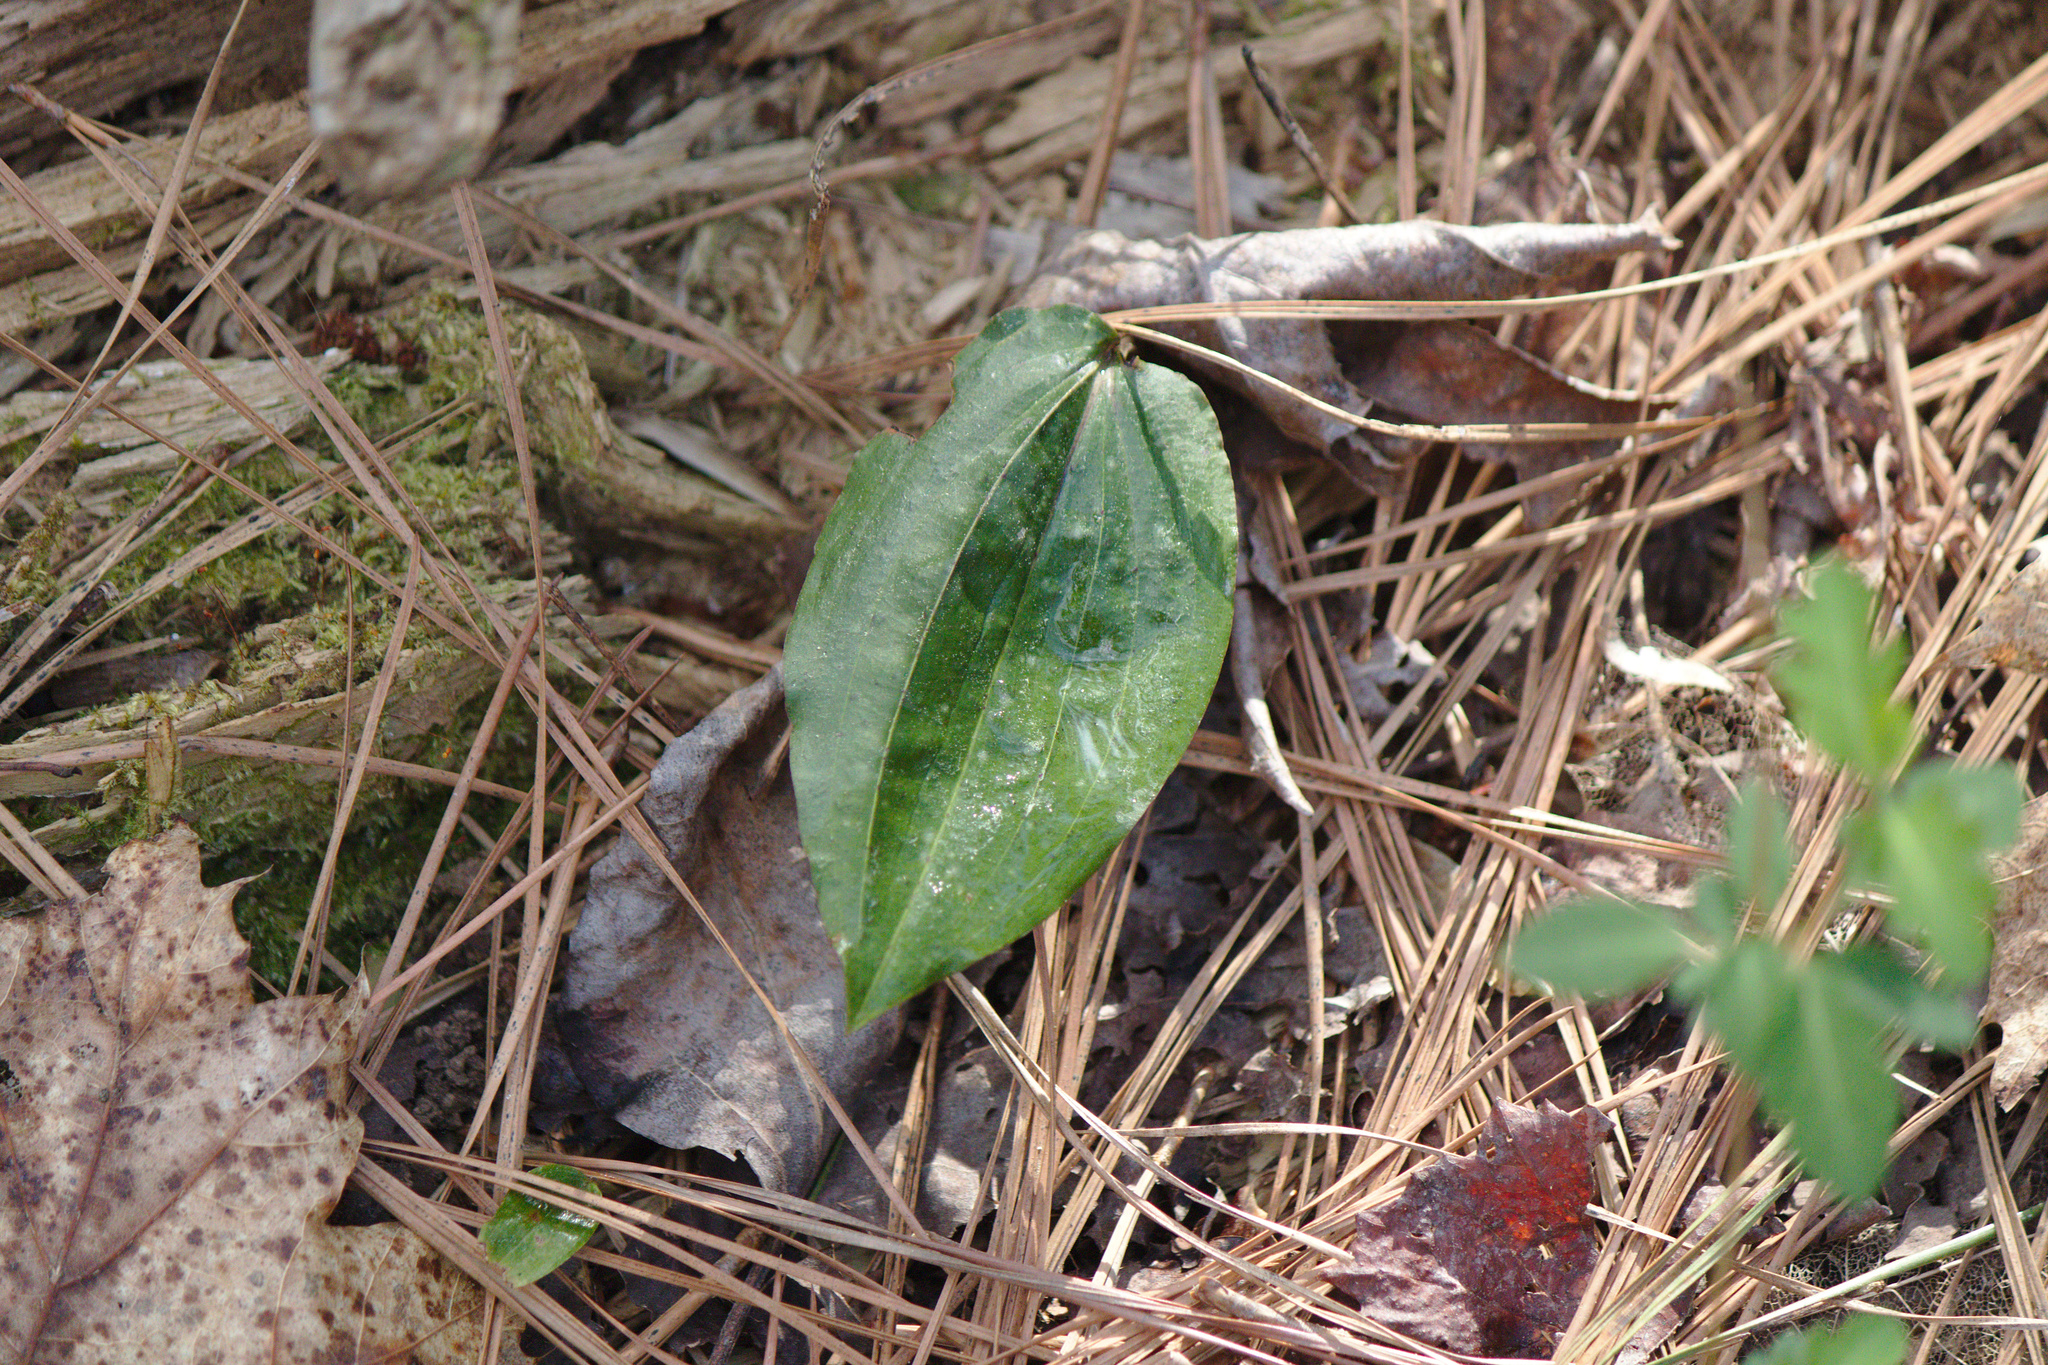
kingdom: Plantae
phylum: Tracheophyta
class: Liliopsida
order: Asparagales
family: Orchidaceae
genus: Tipularia
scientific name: Tipularia discolor
